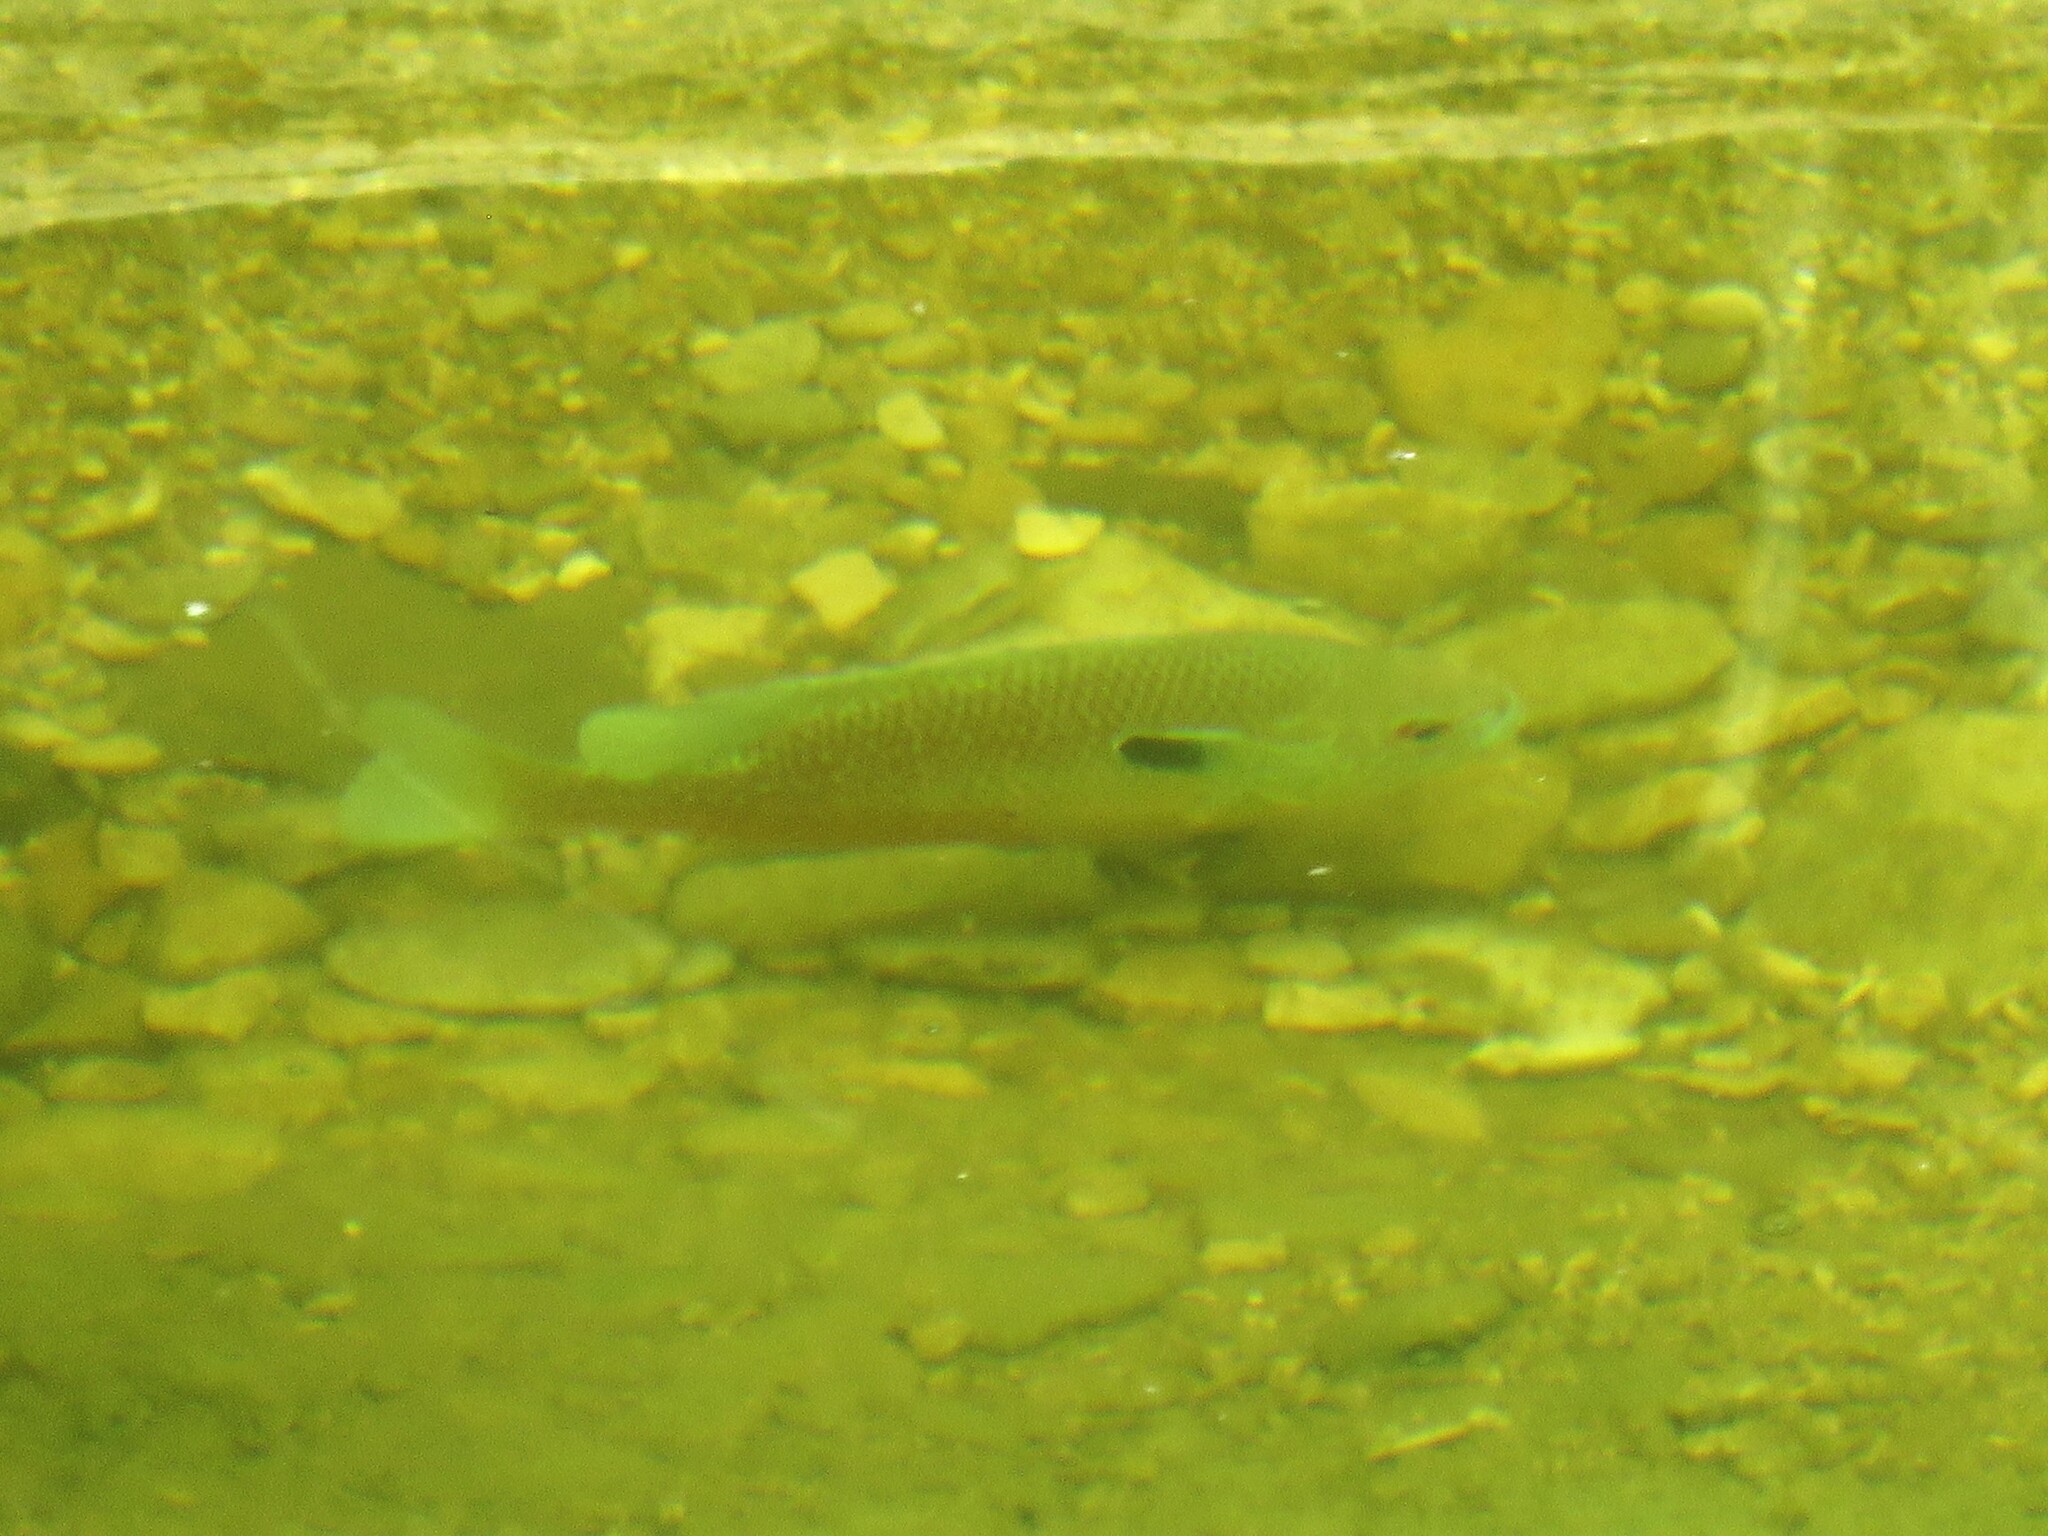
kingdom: Animalia
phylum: Chordata
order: Perciformes
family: Centrarchidae
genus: Lepomis
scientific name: Lepomis aquilensis
